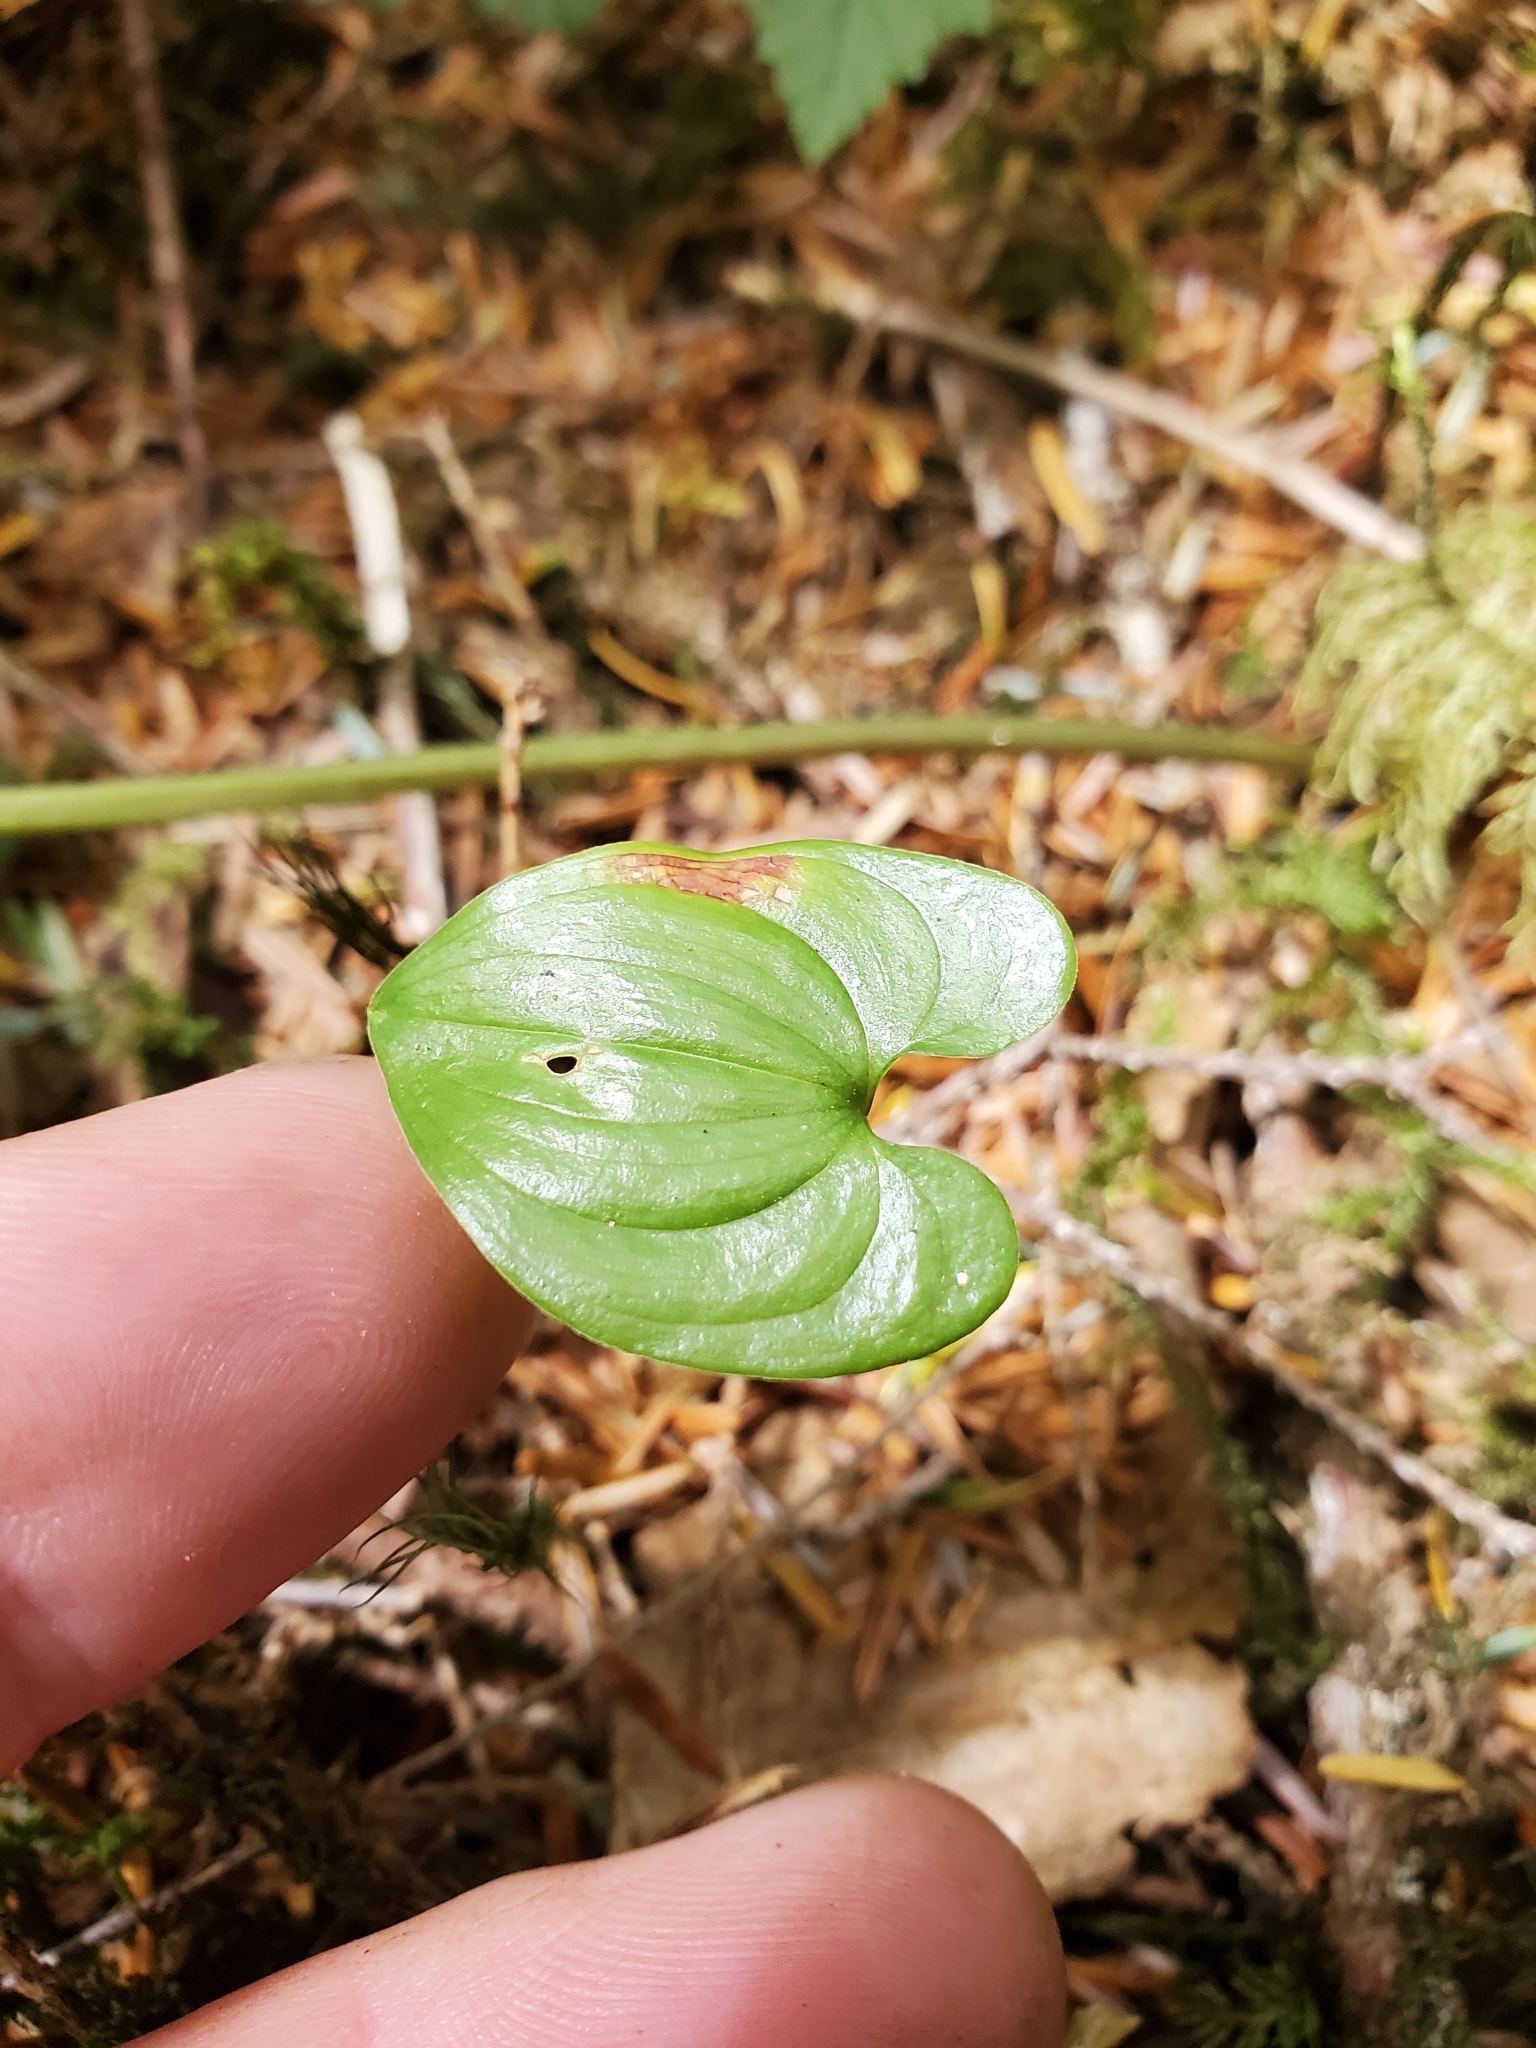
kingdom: Plantae
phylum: Tracheophyta
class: Liliopsida
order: Asparagales
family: Asparagaceae
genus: Maianthemum
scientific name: Maianthemum dilatatum
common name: False lily-of-the-valley
